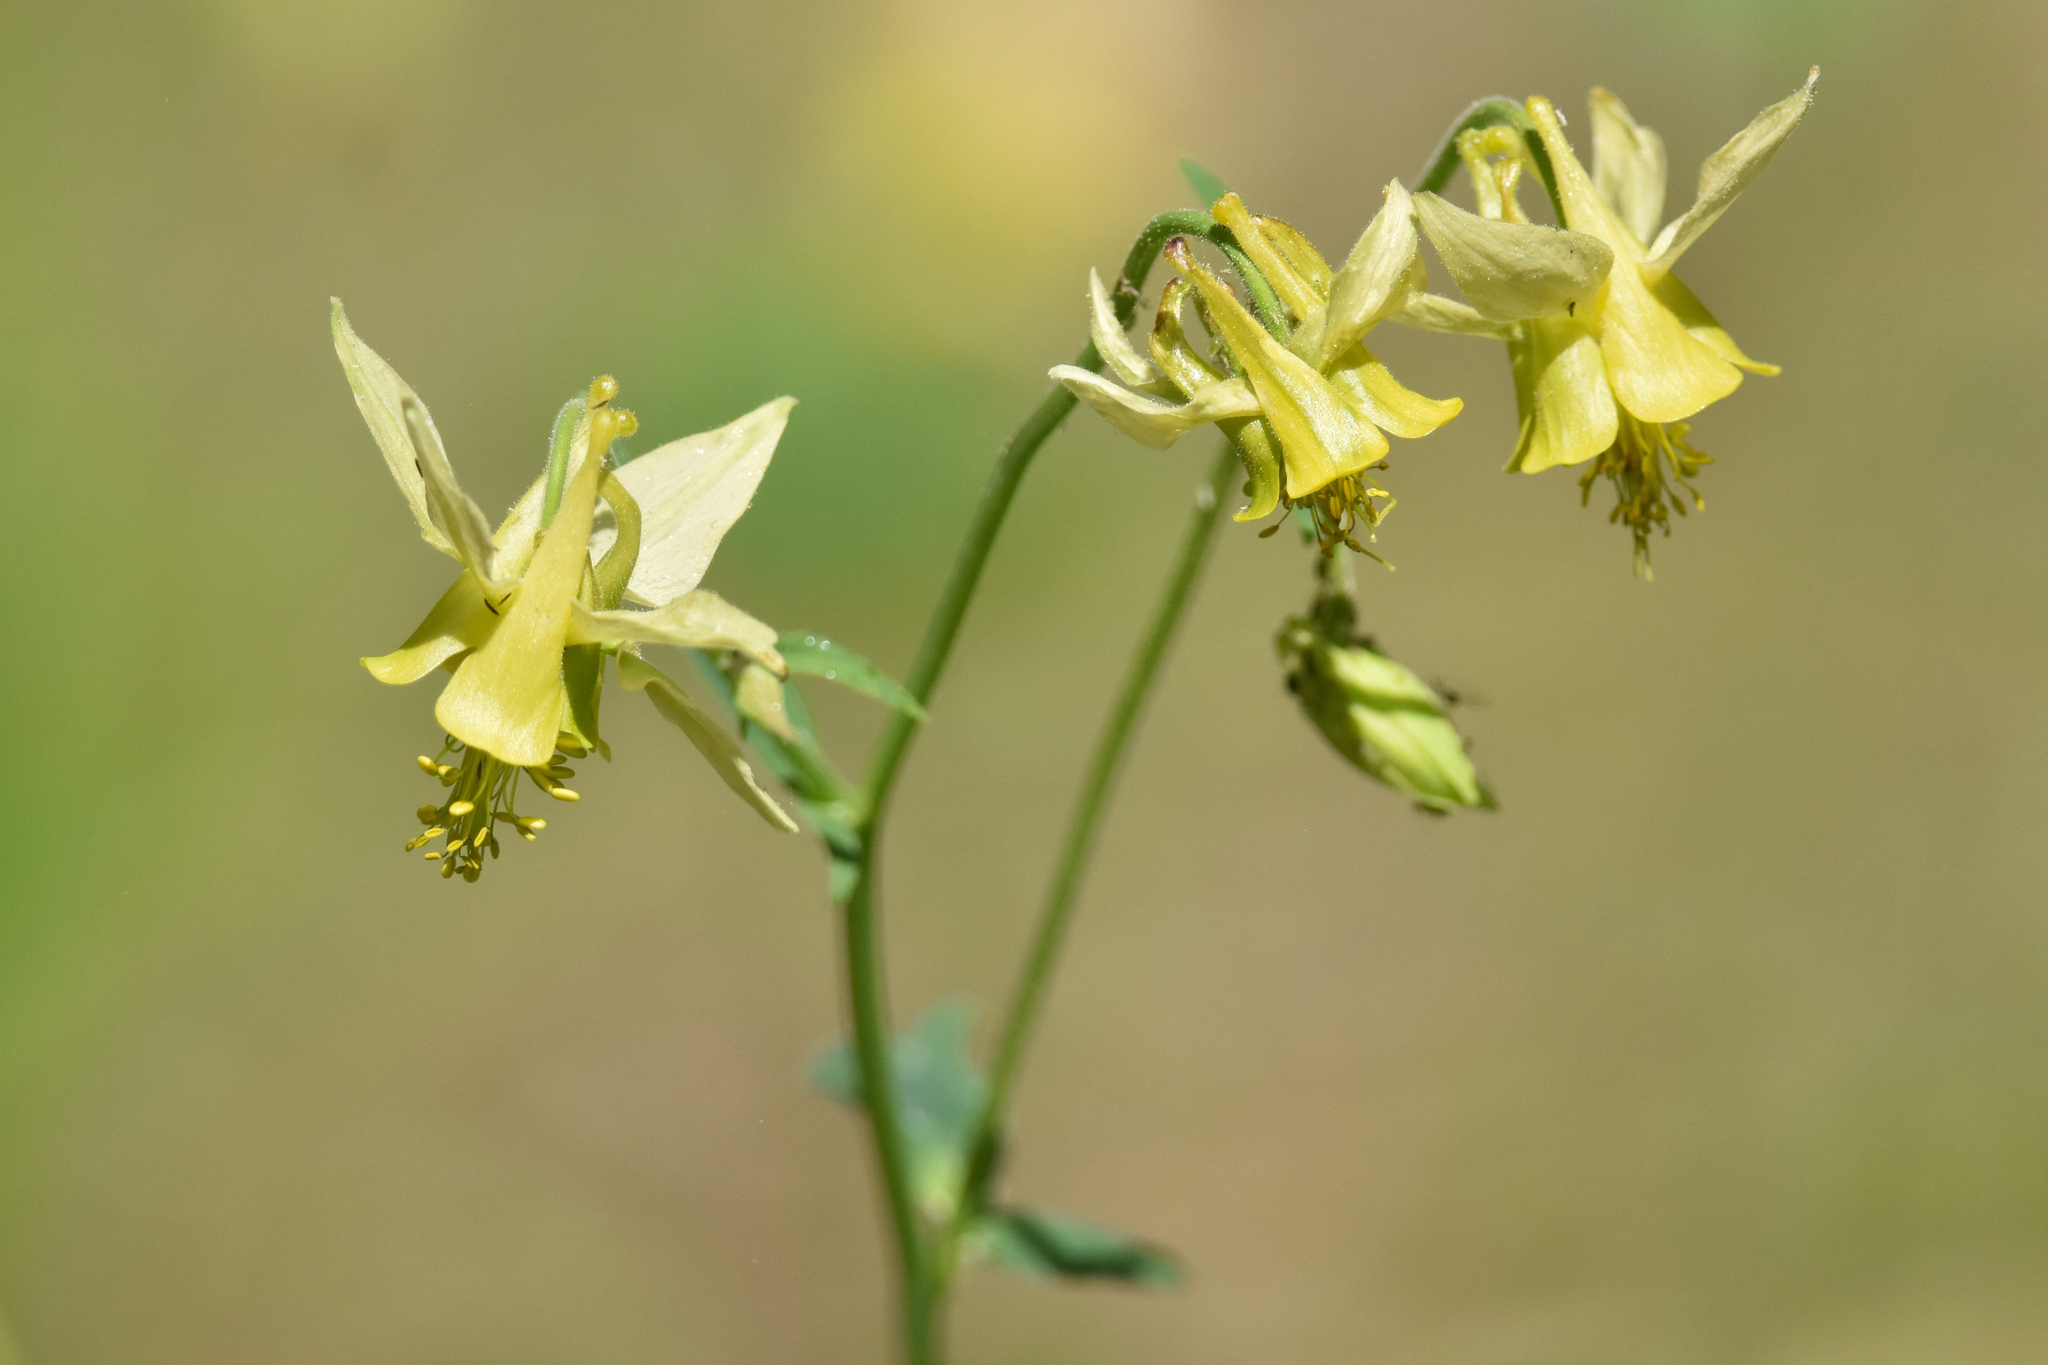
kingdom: Plantae
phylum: Tracheophyta
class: Magnoliopsida
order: Ranunculales
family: Ranunculaceae
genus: Aquilegia
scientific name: Aquilegia flavescens
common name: Yellow columbine
